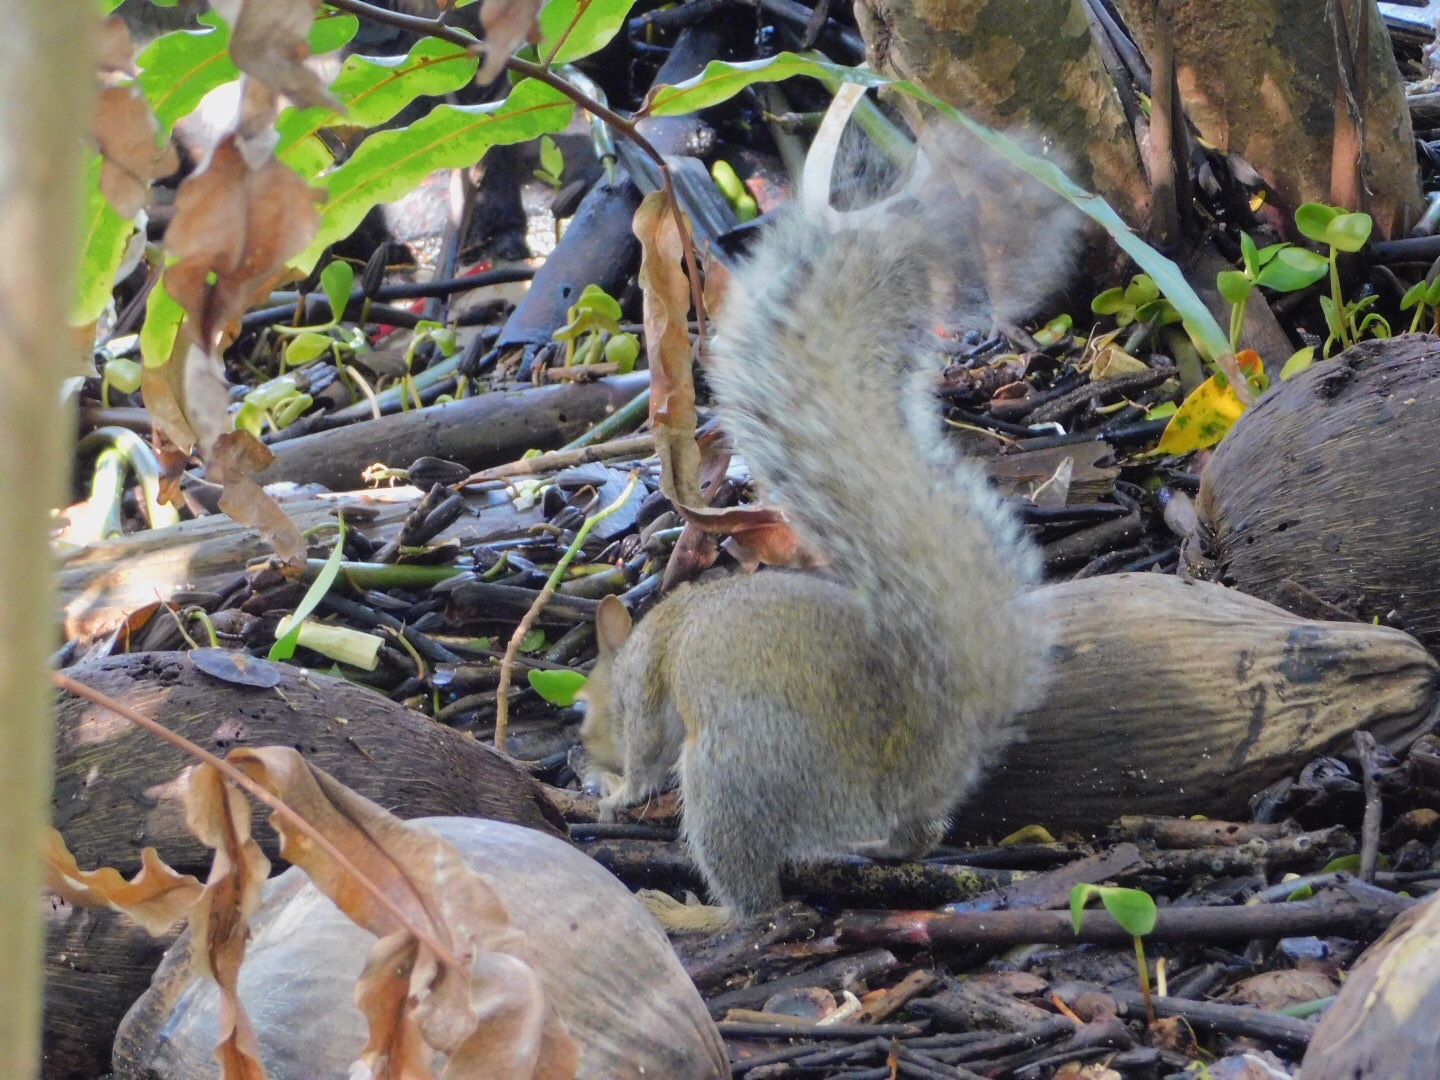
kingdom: Animalia
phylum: Chordata
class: Mammalia
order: Rodentia
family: Sciuridae
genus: Sciurus
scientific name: Sciurus carolinensis
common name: Eastern gray squirrel
